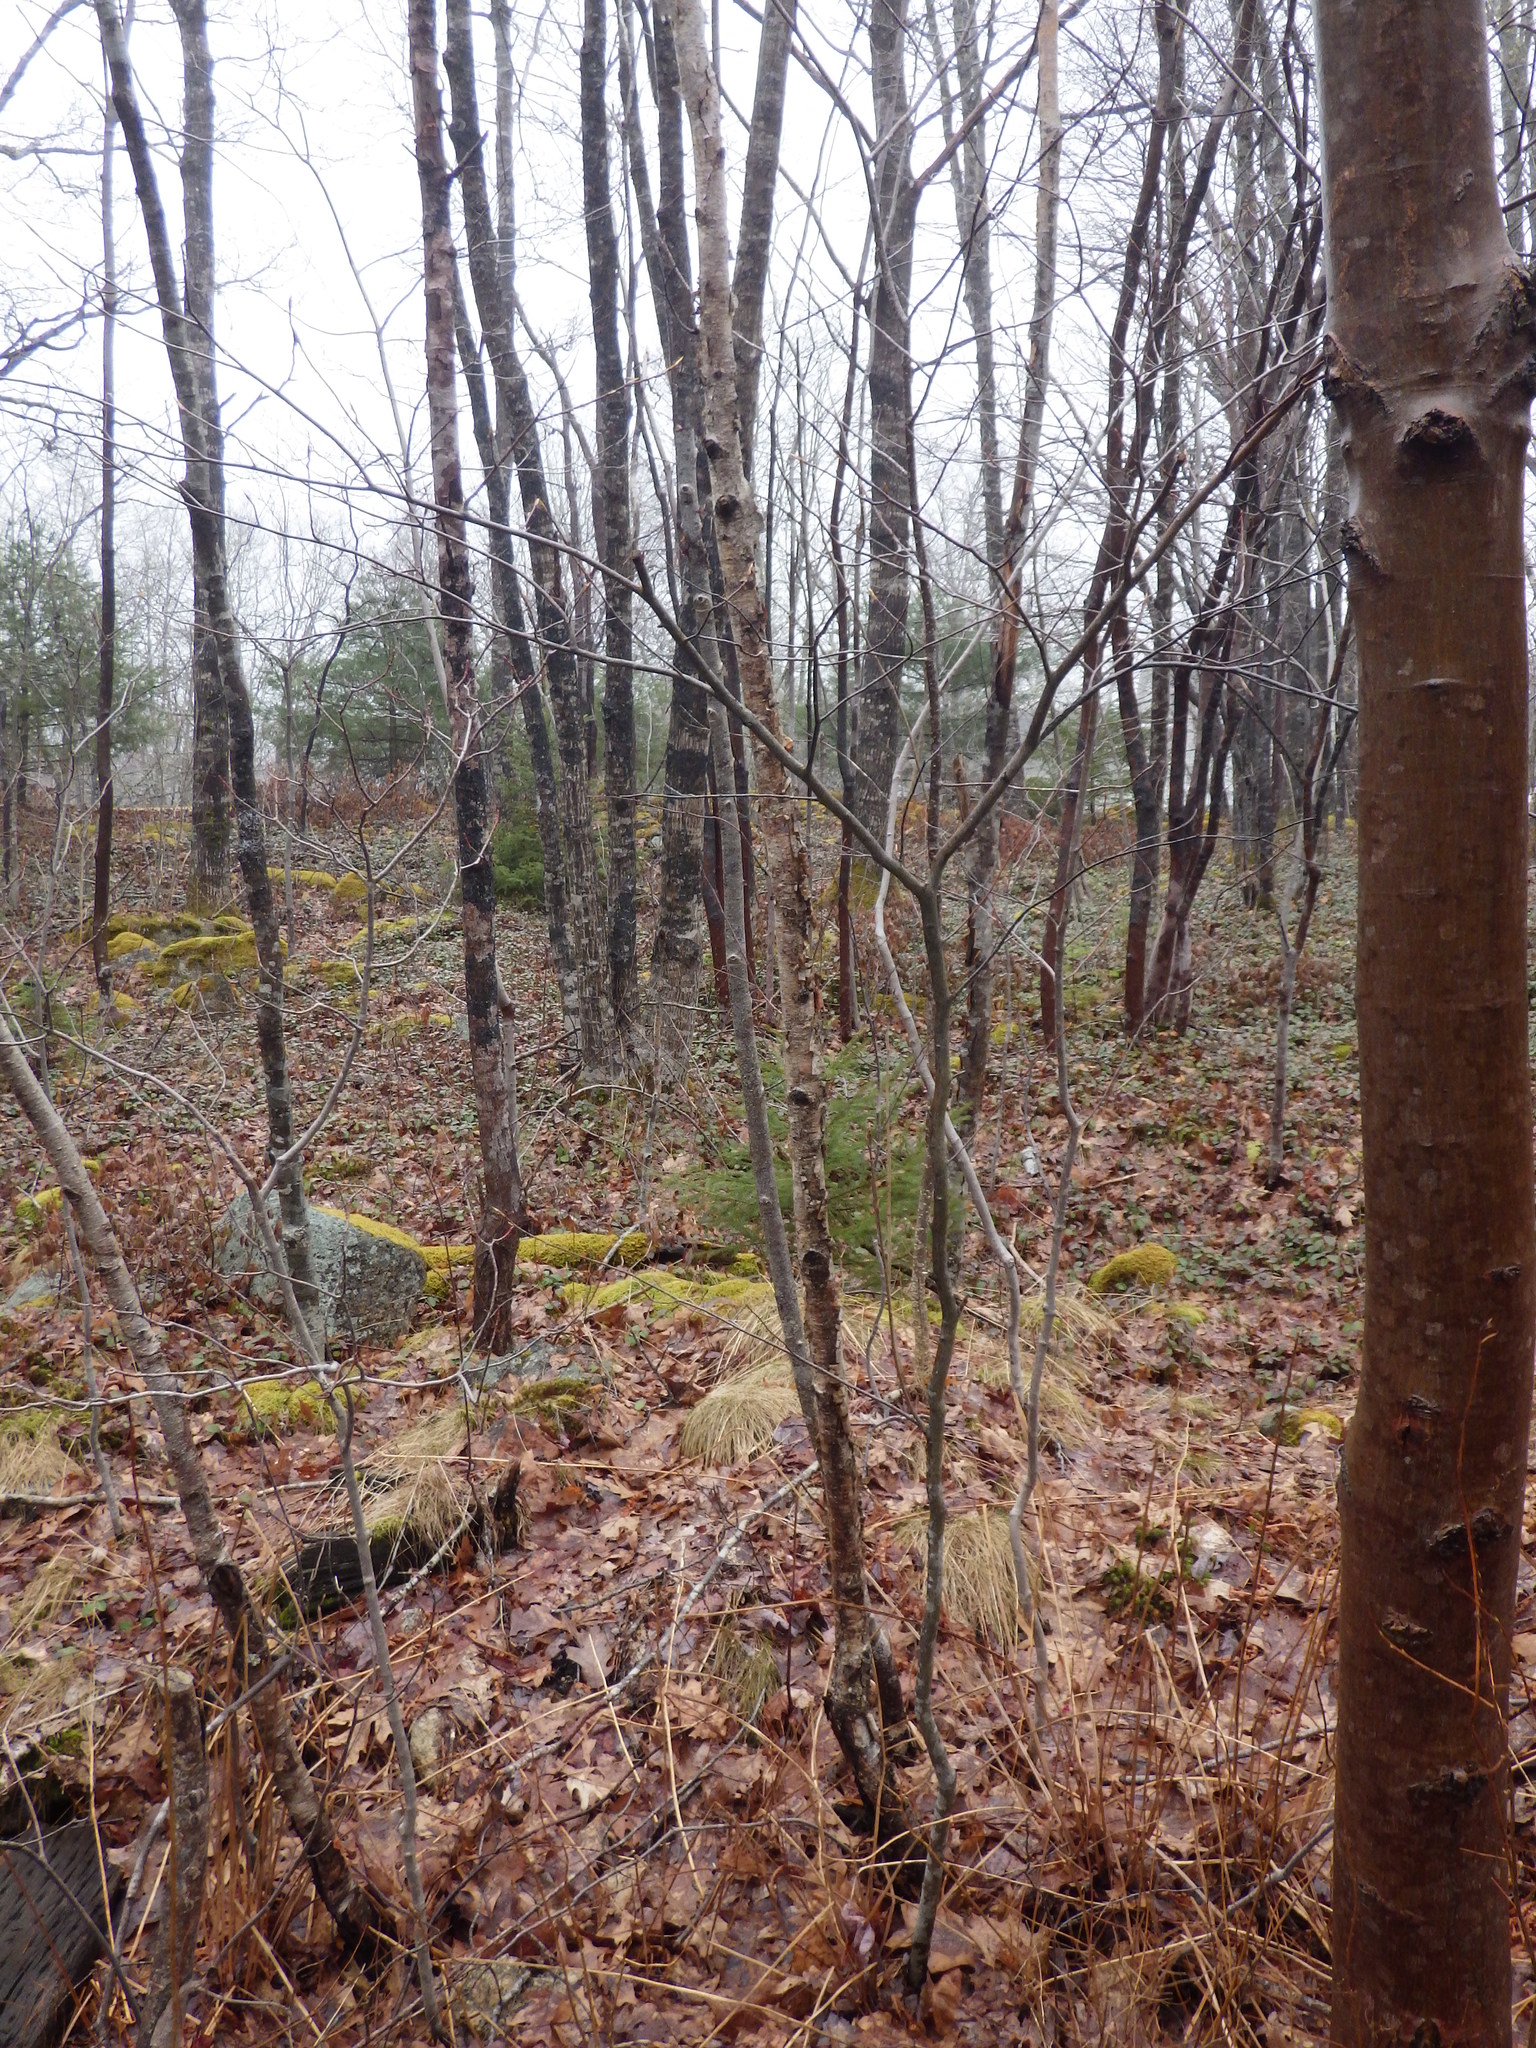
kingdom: Plantae
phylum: Tracheophyta
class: Magnoliopsida
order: Fagales
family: Fagaceae
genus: Fagus
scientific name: Fagus grandifolia
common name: American beech
